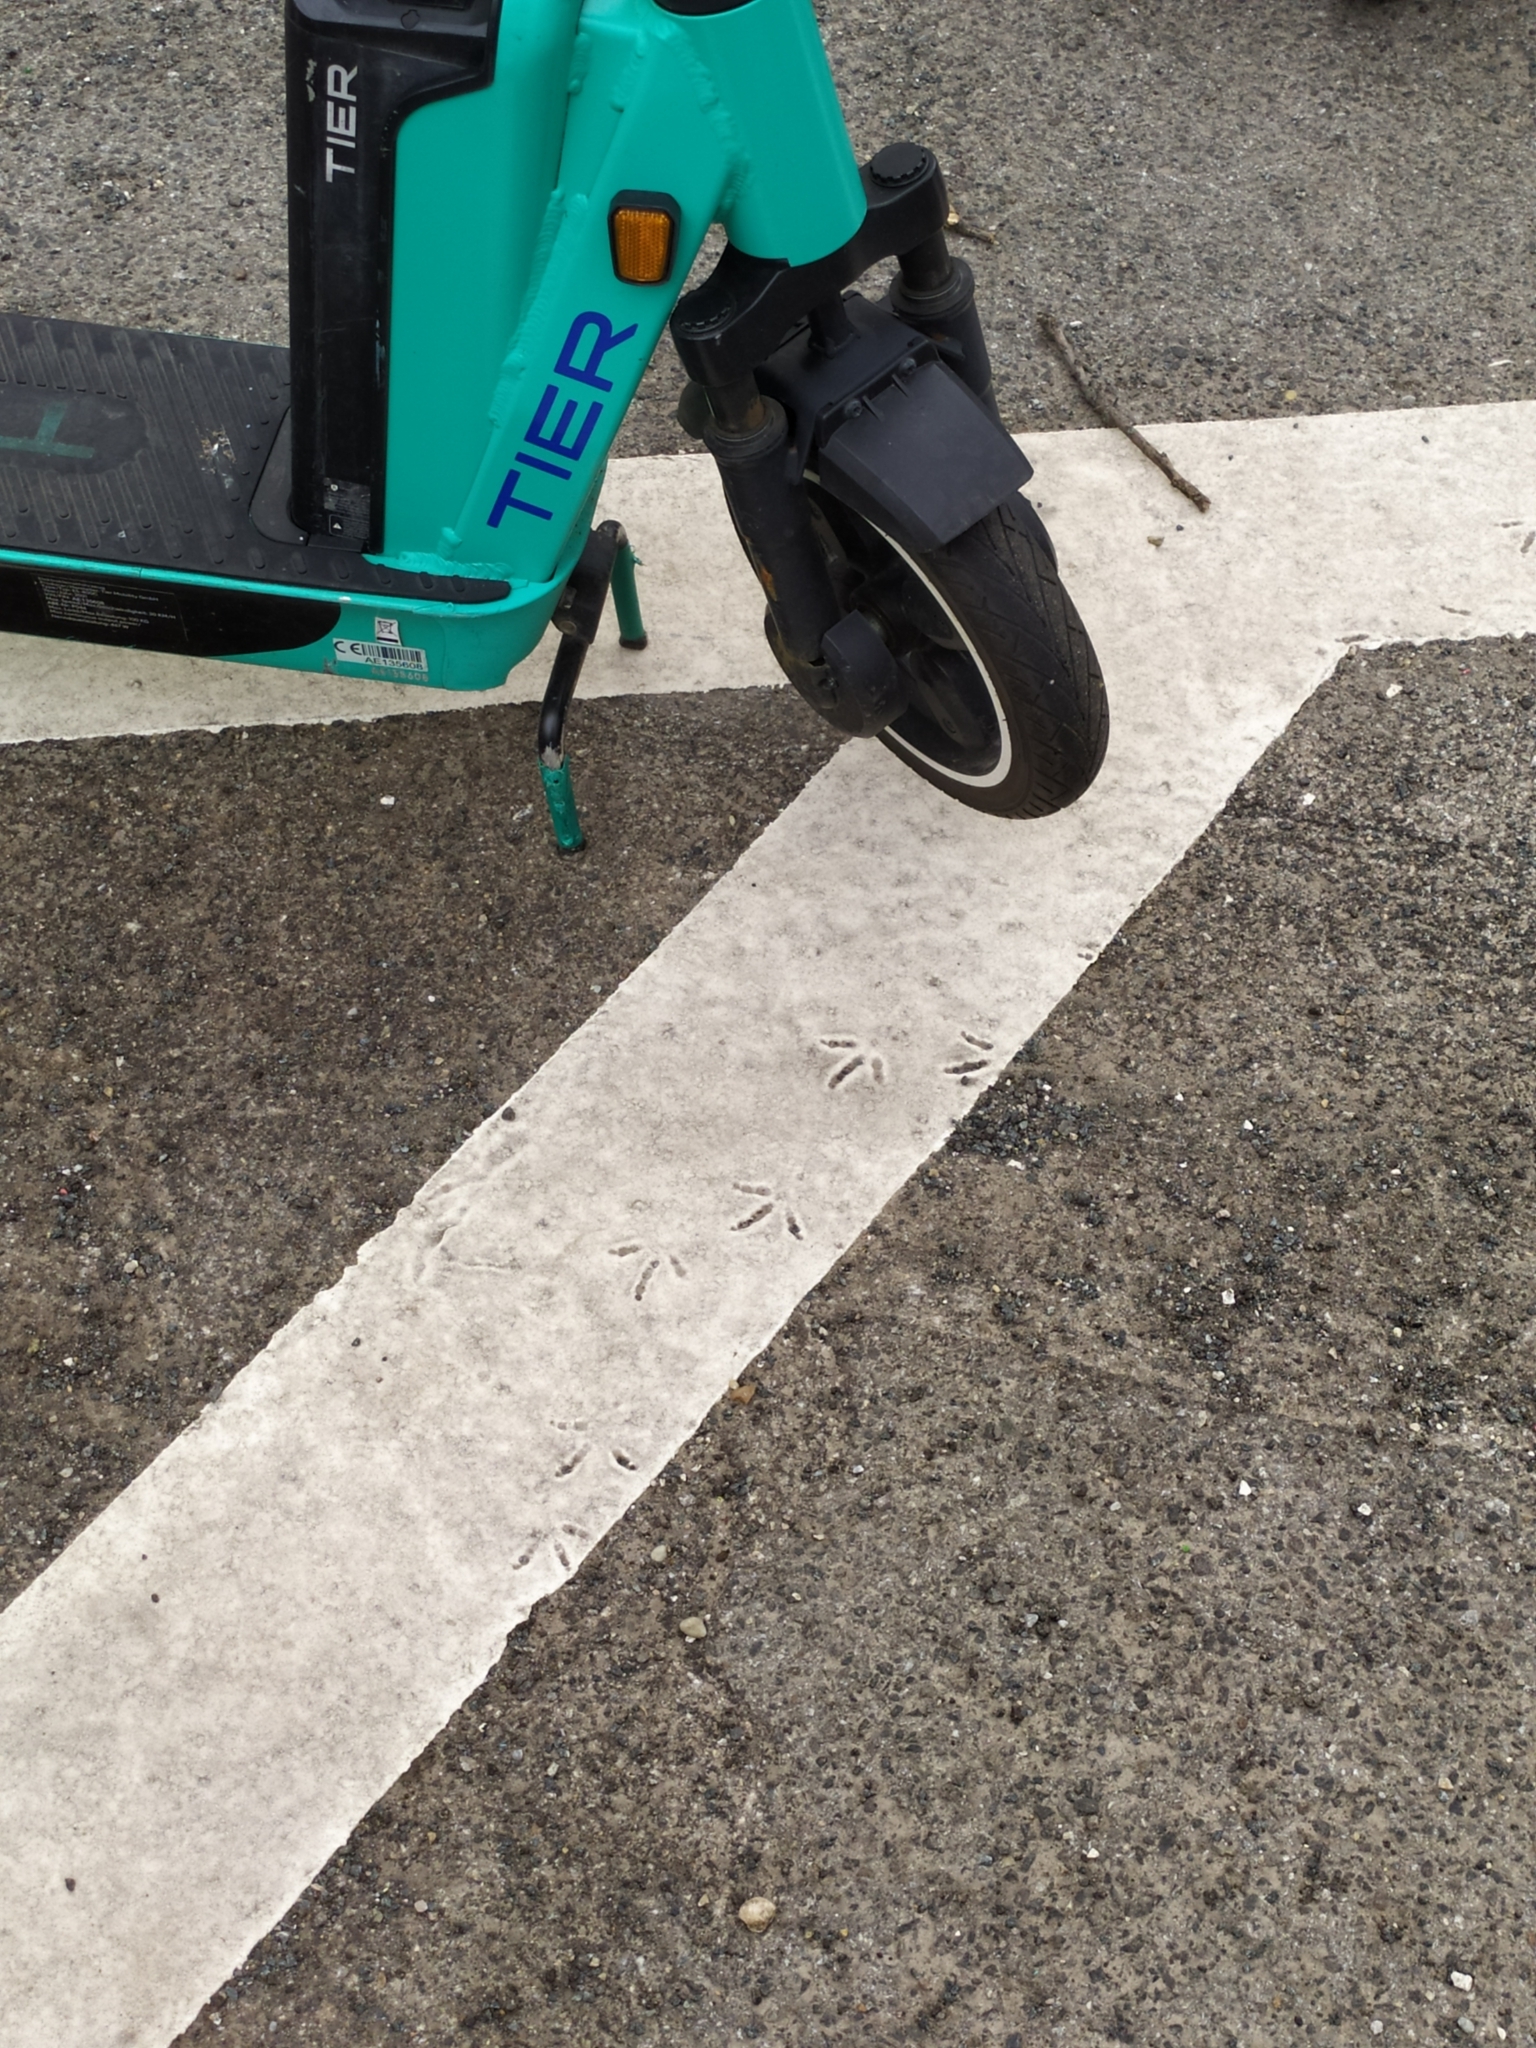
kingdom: Animalia
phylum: Chordata
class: Aves
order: Columbiformes
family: Columbidae
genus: Columba
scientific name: Columba livia
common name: Rock pigeon
